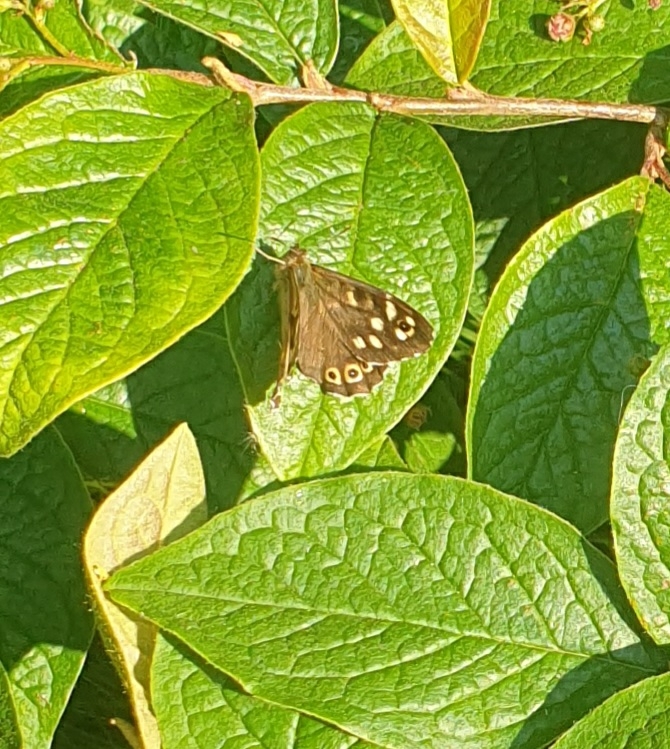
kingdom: Animalia
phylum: Arthropoda
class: Insecta
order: Lepidoptera
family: Nymphalidae
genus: Pararge
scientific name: Pararge aegeria
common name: Speckled wood
